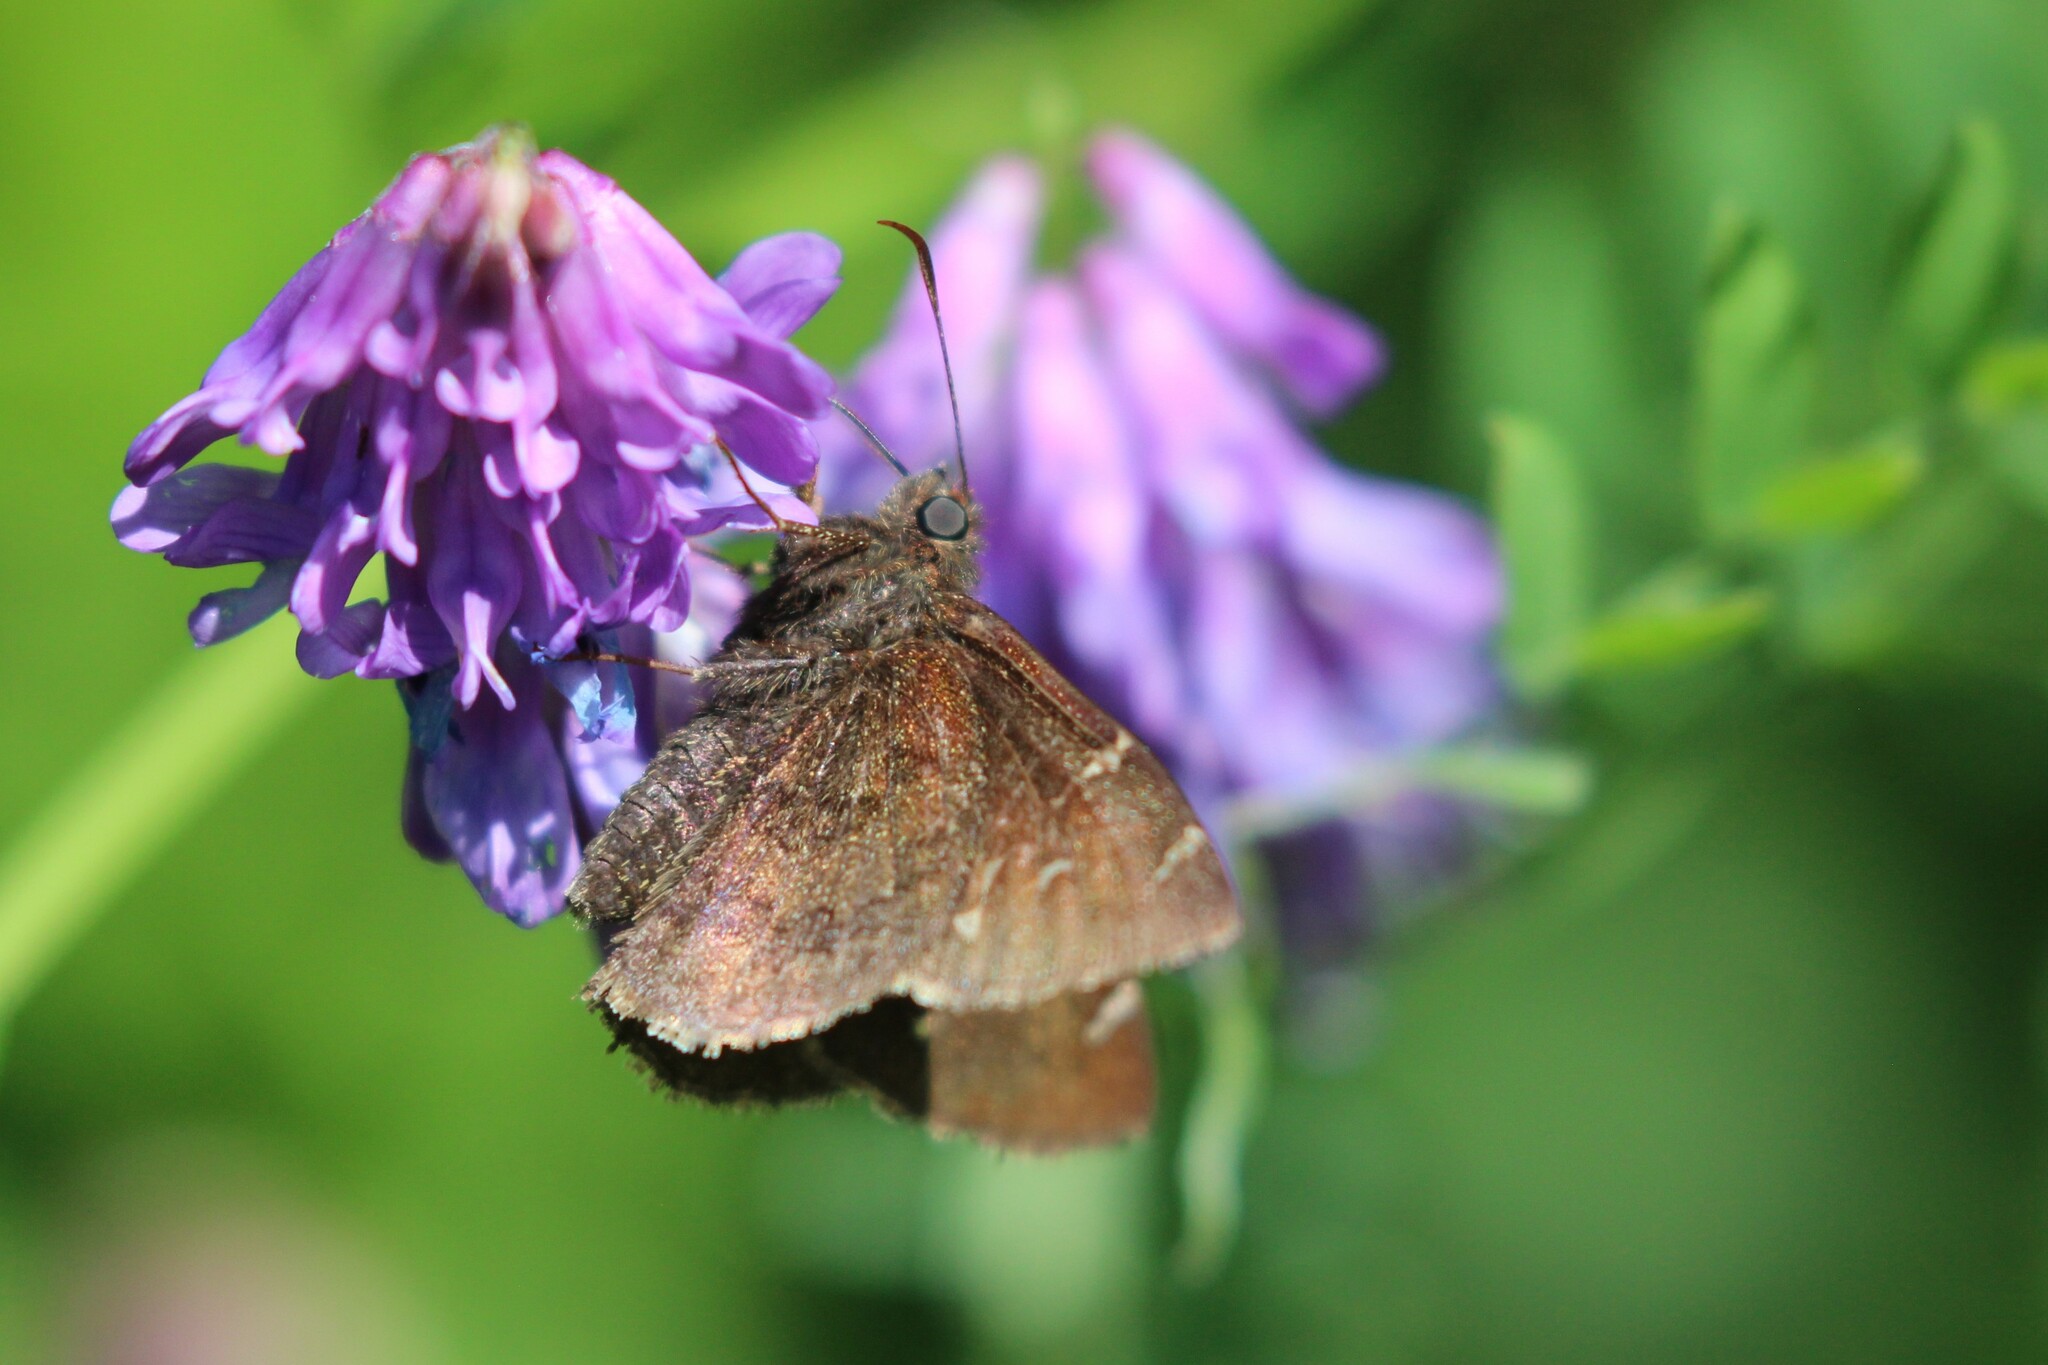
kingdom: Animalia
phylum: Arthropoda
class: Insecta
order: Lepidoptera
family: Hesperiidae
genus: Thorybes
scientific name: Thorybes pylades
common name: Northern cloudywing
